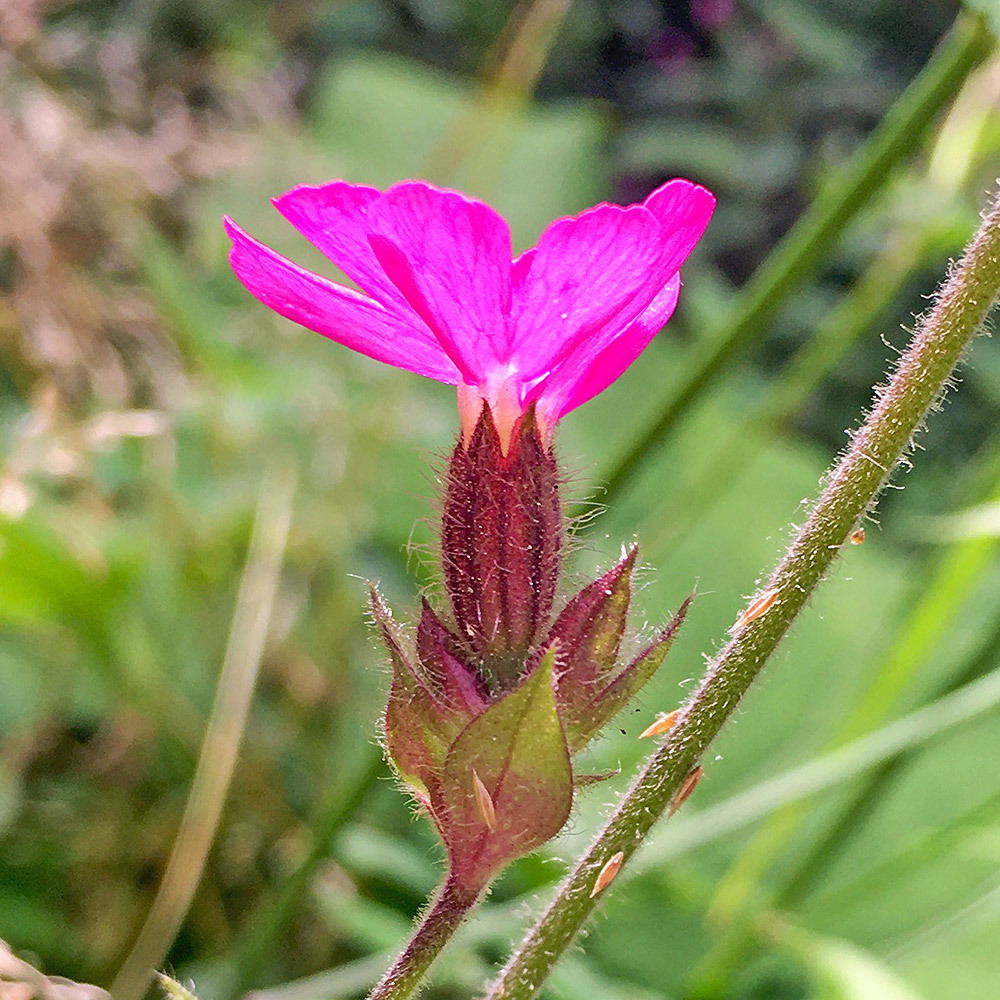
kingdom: Plantae
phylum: Tracheophyta
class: Magnoliopsida
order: Caryophyllales
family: Caryophyllaceae
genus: Silene
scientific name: Silene dioica
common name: Red campion
